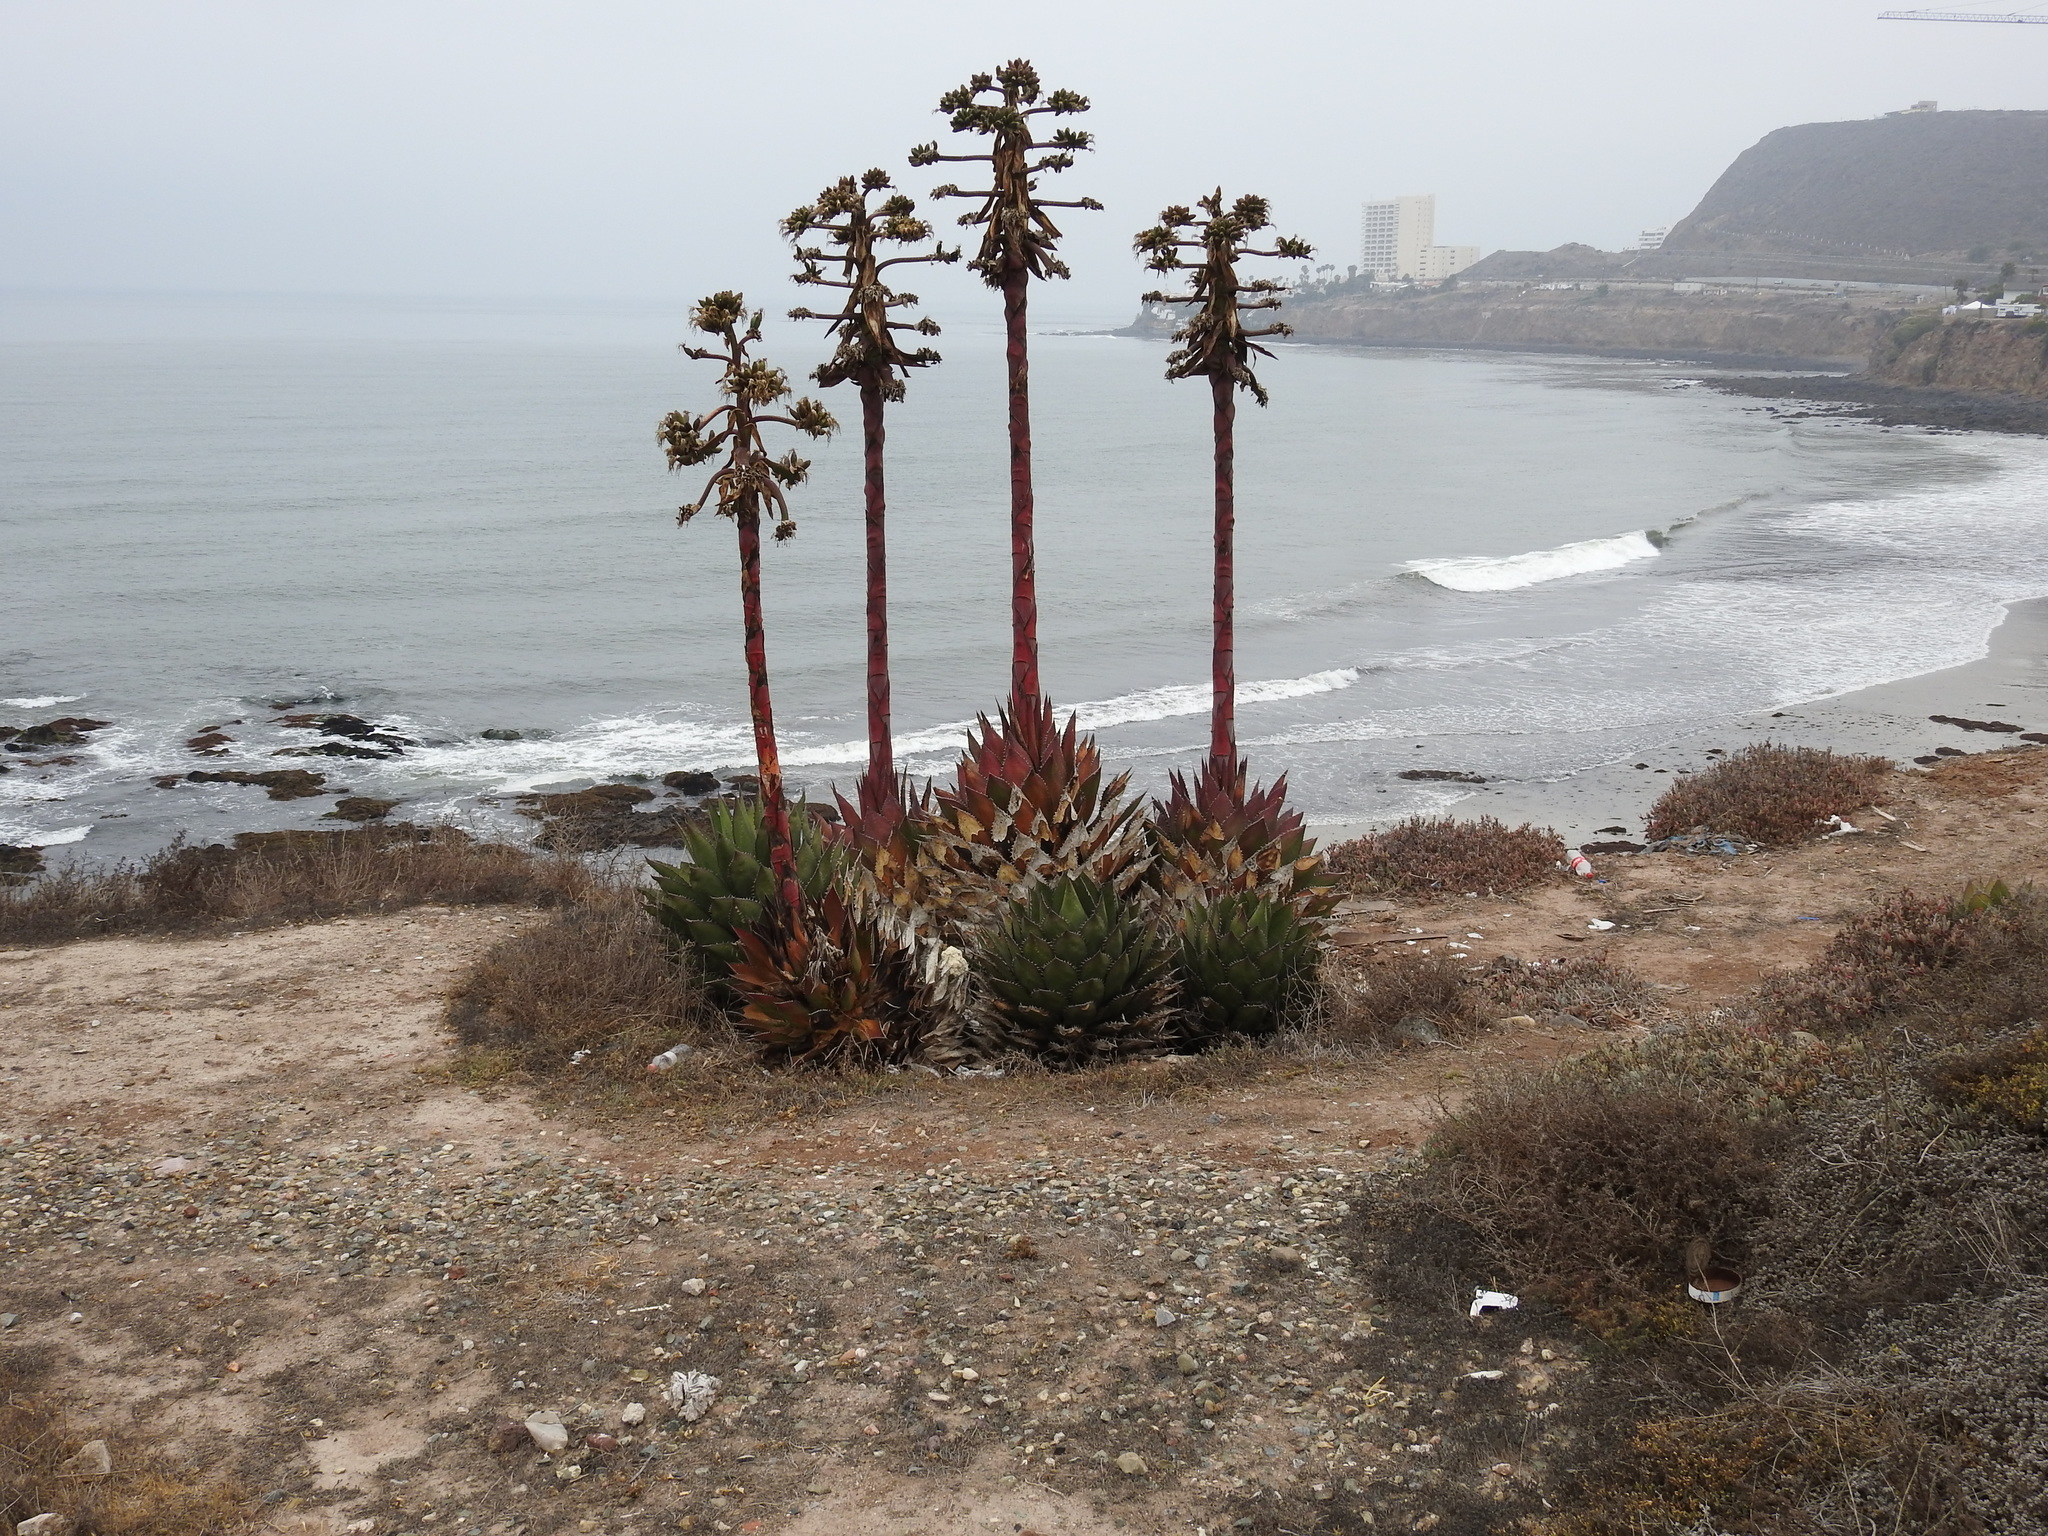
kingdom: Plantae
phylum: Tracheophyta
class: Liliopsida
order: Asparagales
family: Asparagaceae
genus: Agave
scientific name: Agave shawii
